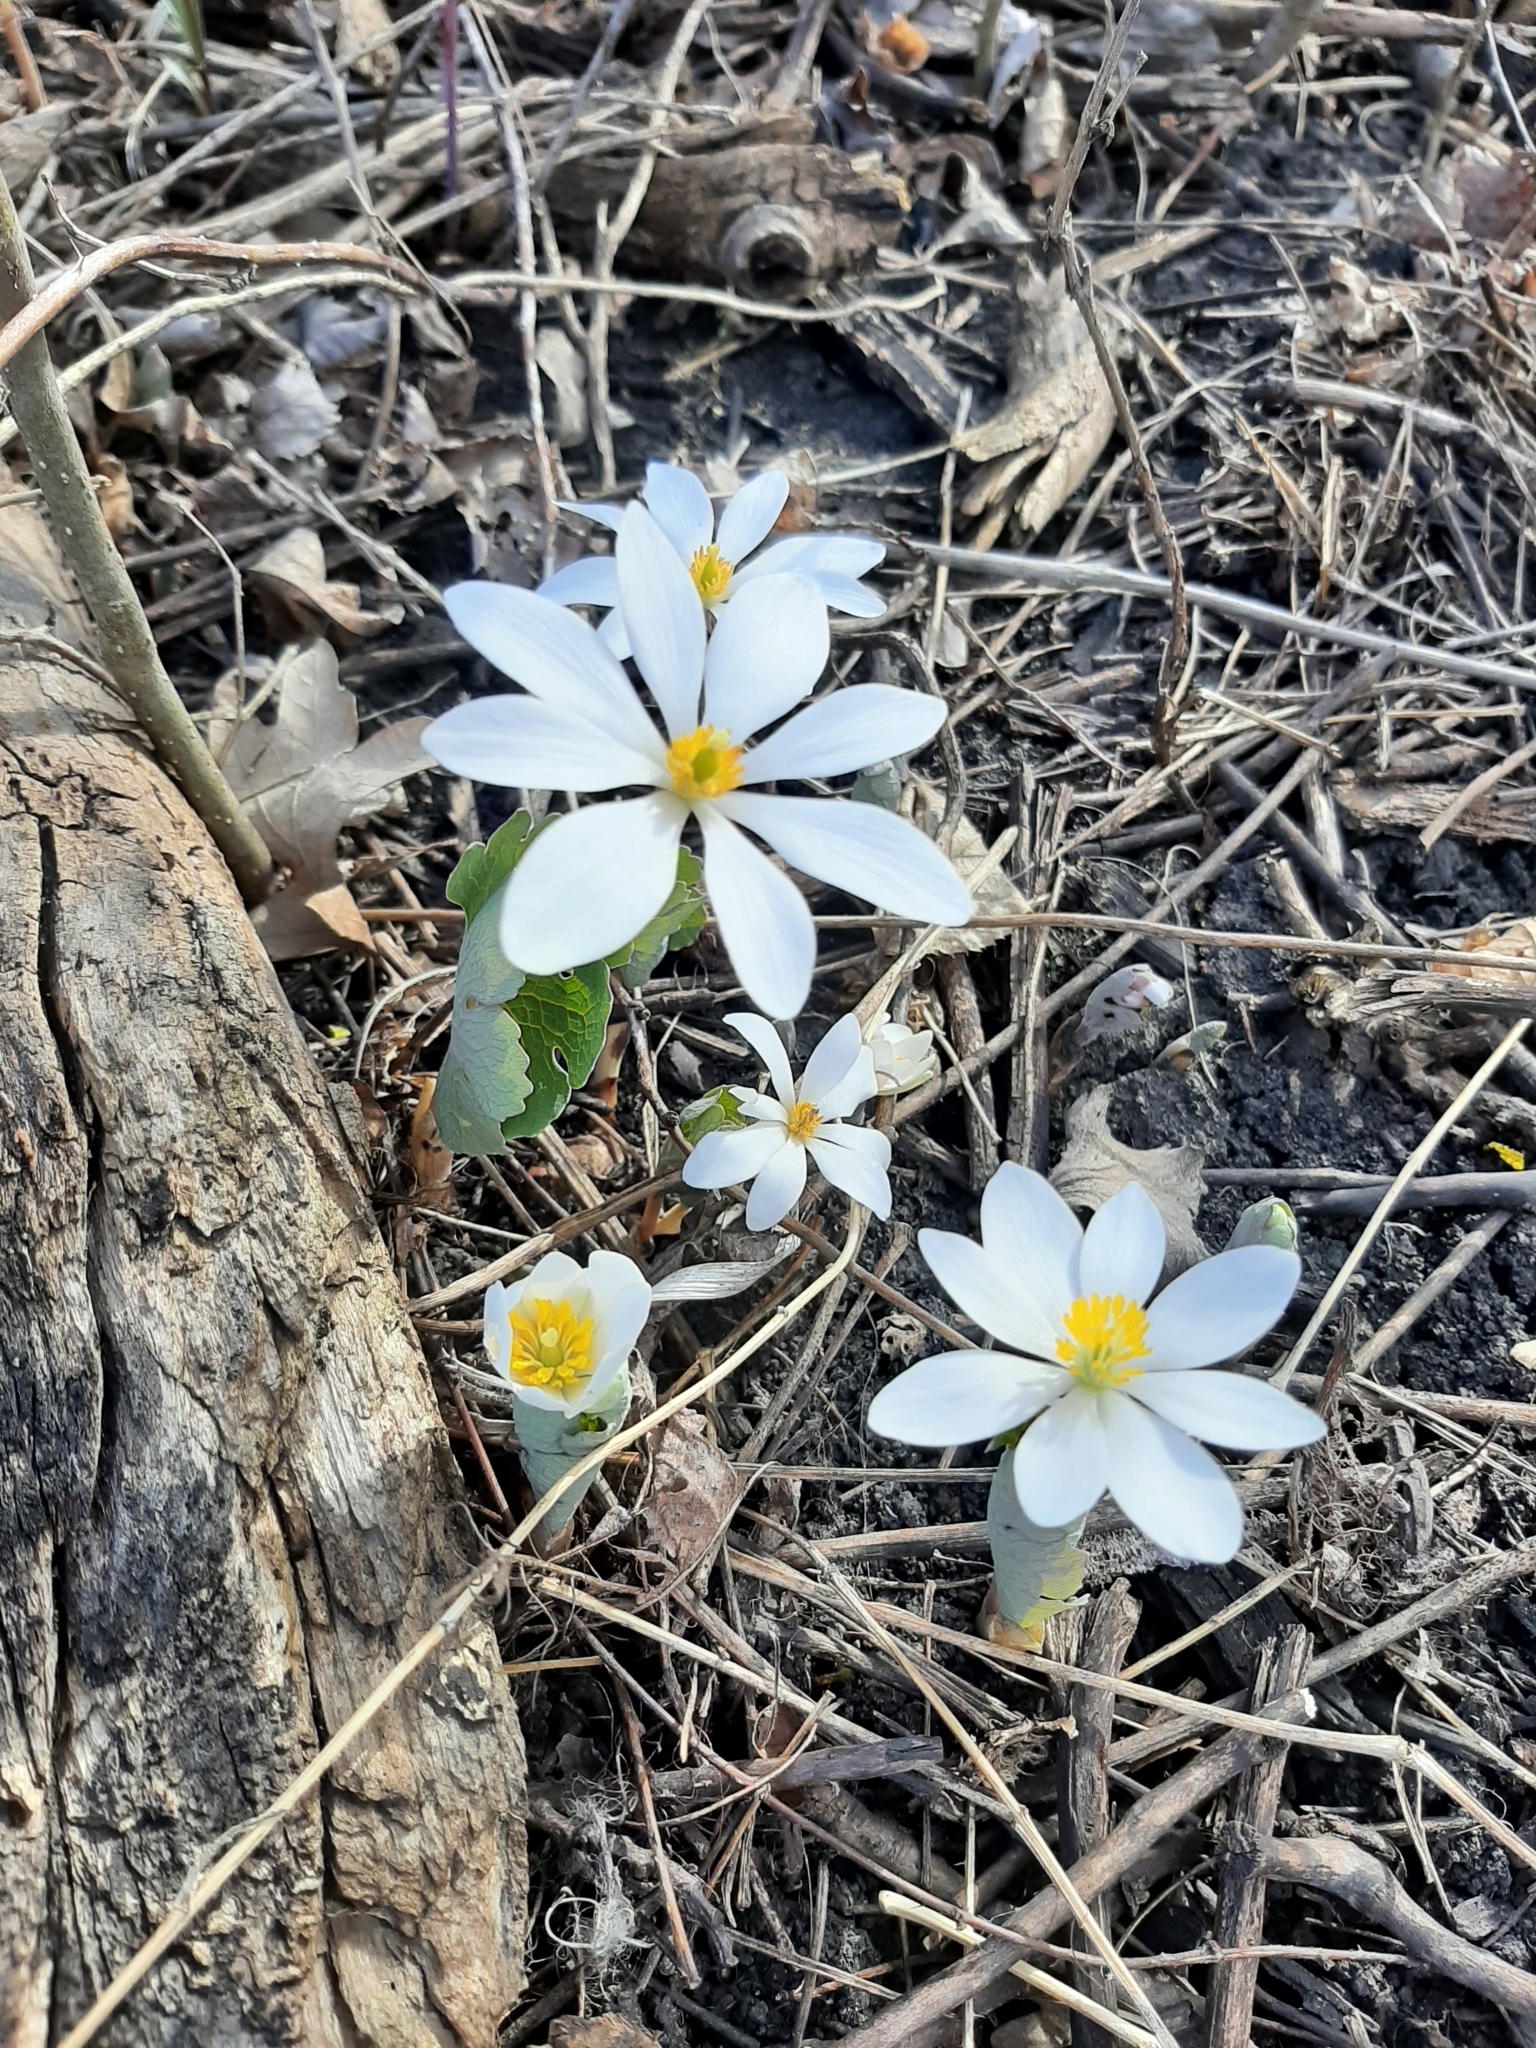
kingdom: Plantae
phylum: Tracheophyta
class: Magnoliopsida
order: Ranunculales
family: Papaveraceae
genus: Sanguinaria
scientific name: Sanguinaria canadensis
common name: Bloodroot
